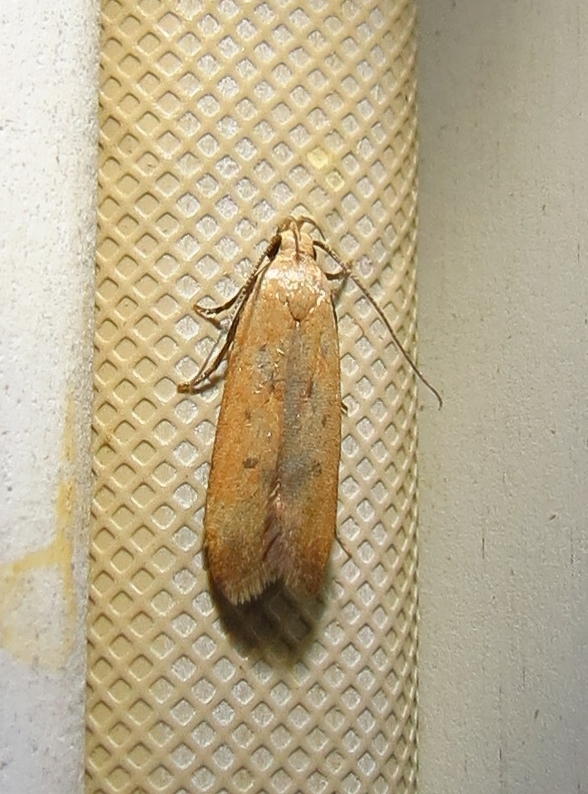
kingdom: Animalia
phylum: Arthropoda
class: Insecta
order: Lepidoptera
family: Gelechiidae
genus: Anacampsis
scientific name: Anacampsis fullonella
